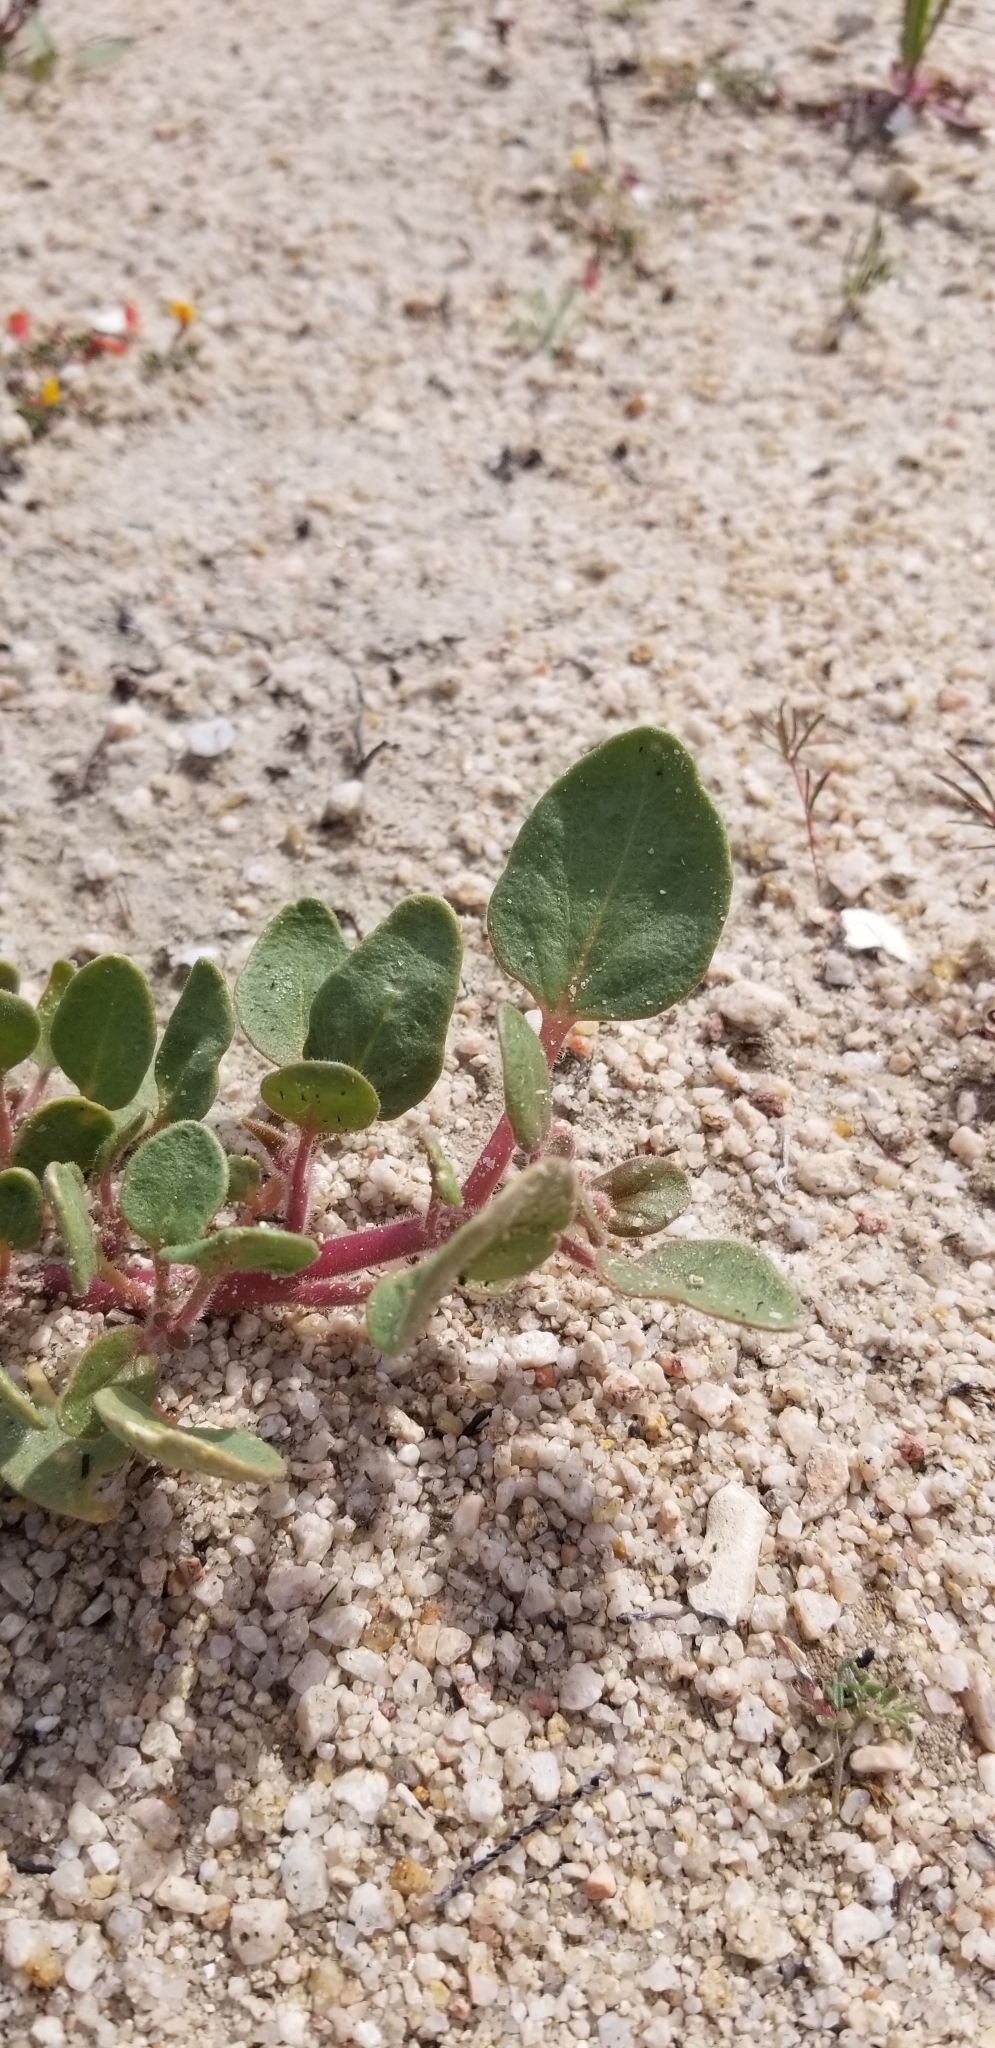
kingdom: Plantae
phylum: Tracheophyta
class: Magnoliopsida
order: Caryophyllales
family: Nyctaginaceae
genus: Abronia
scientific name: Abronia pogonantha
